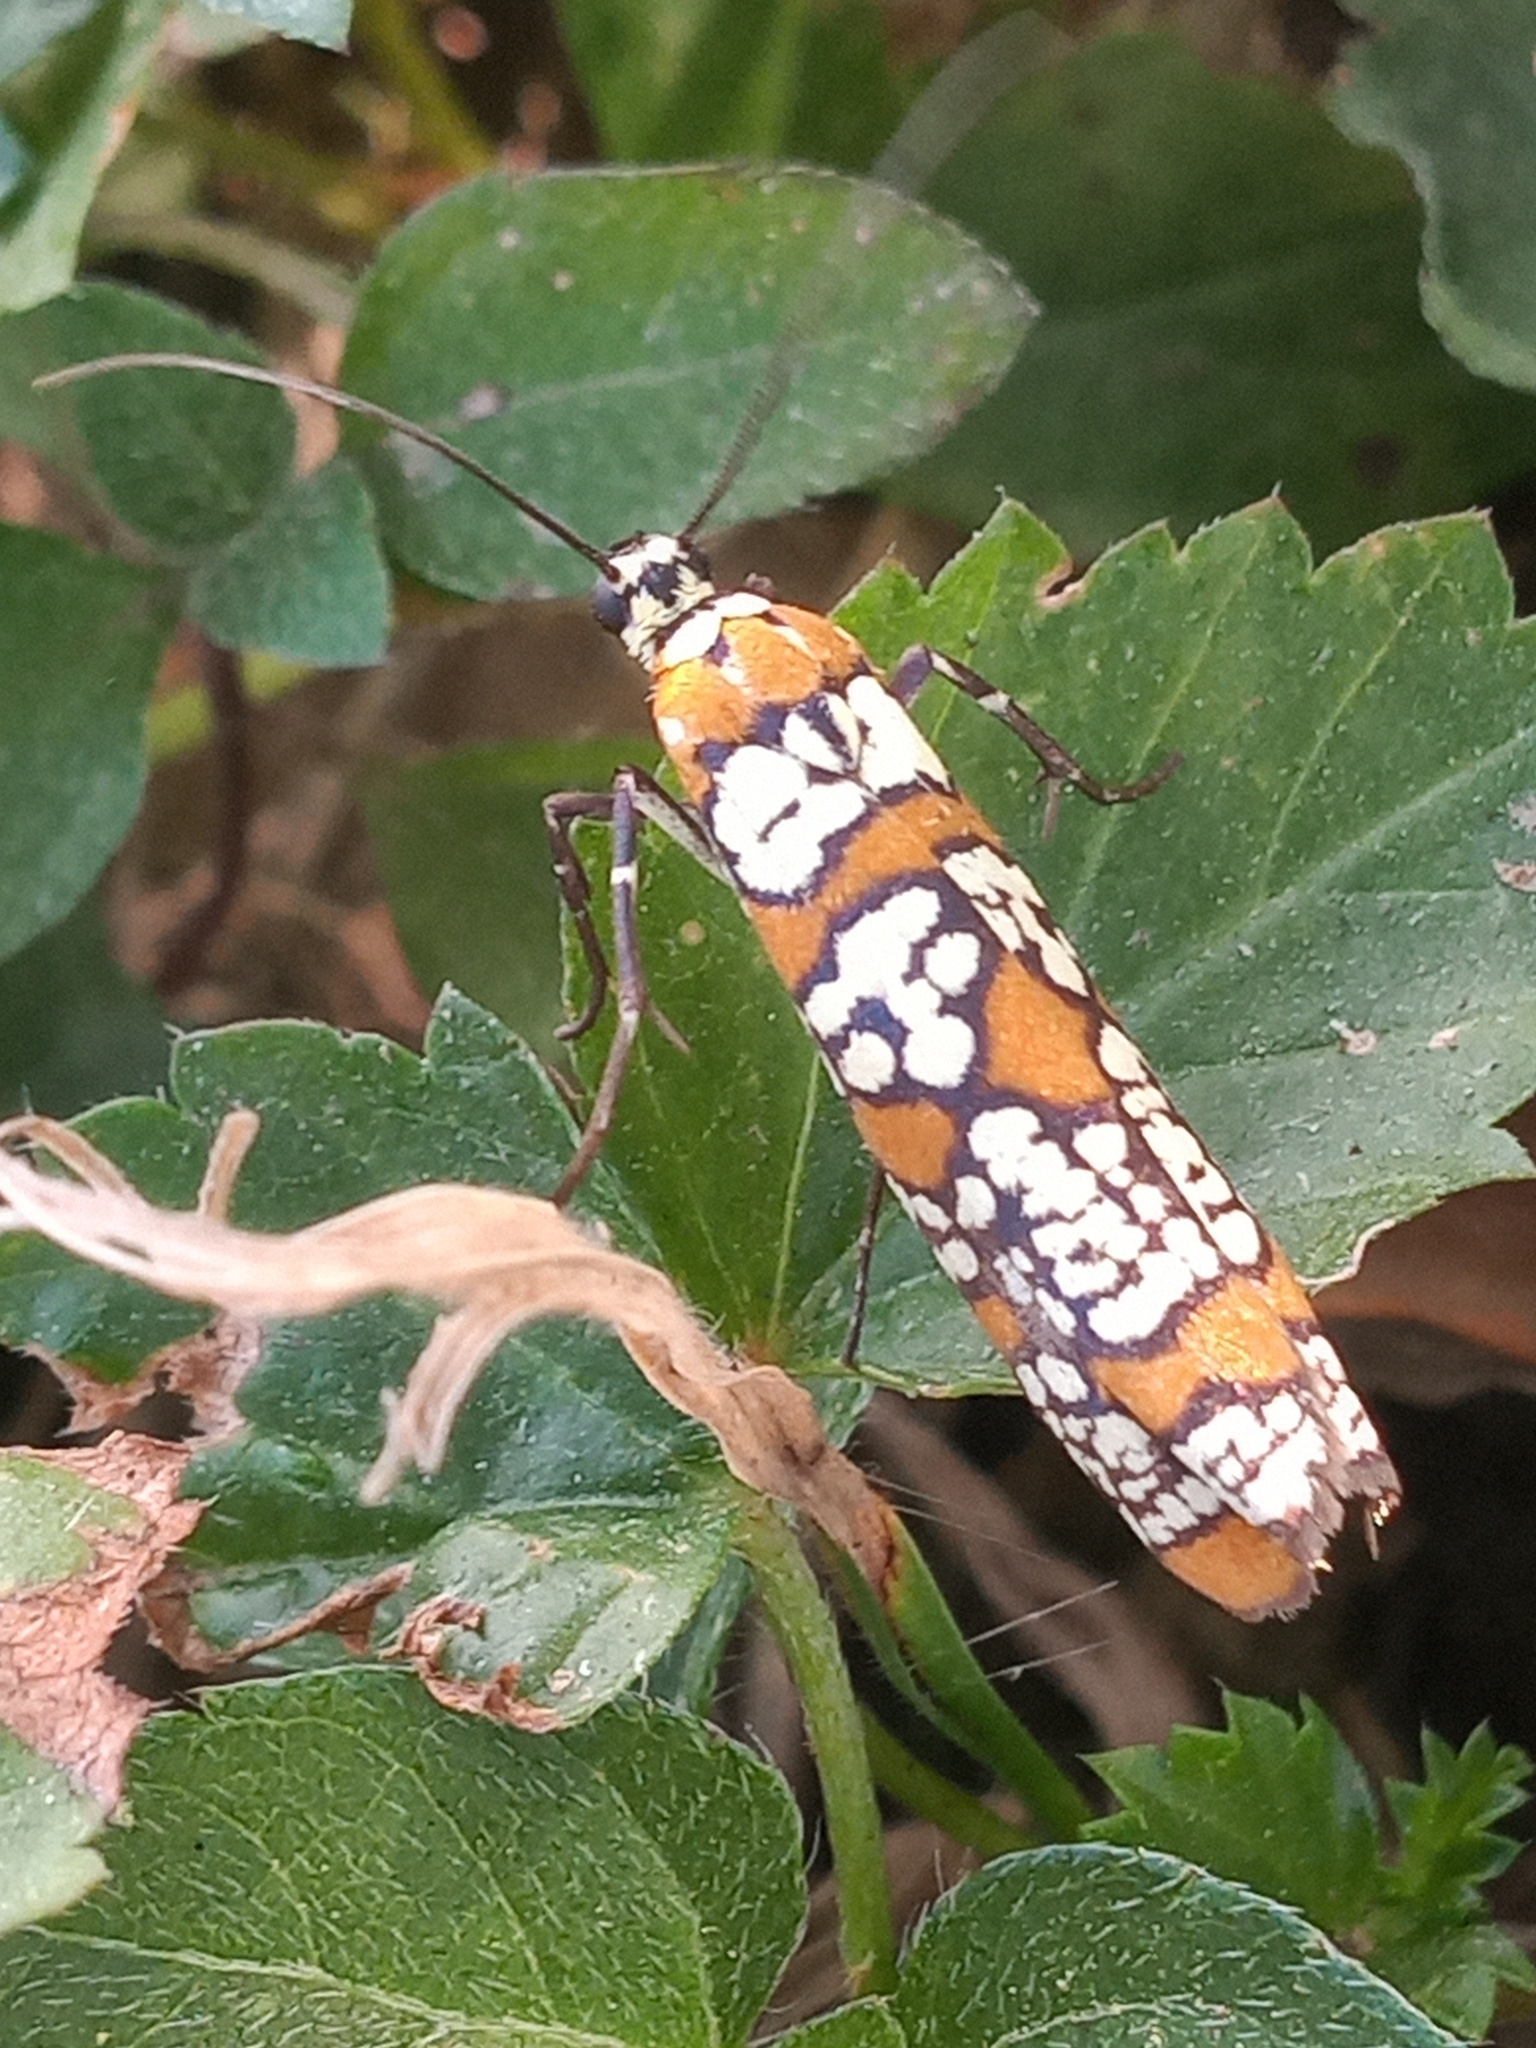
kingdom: Animalia
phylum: Arthropoda
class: Insecta
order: Lepidoptera
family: Attevidae
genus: Atteva
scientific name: Atteva punctella
